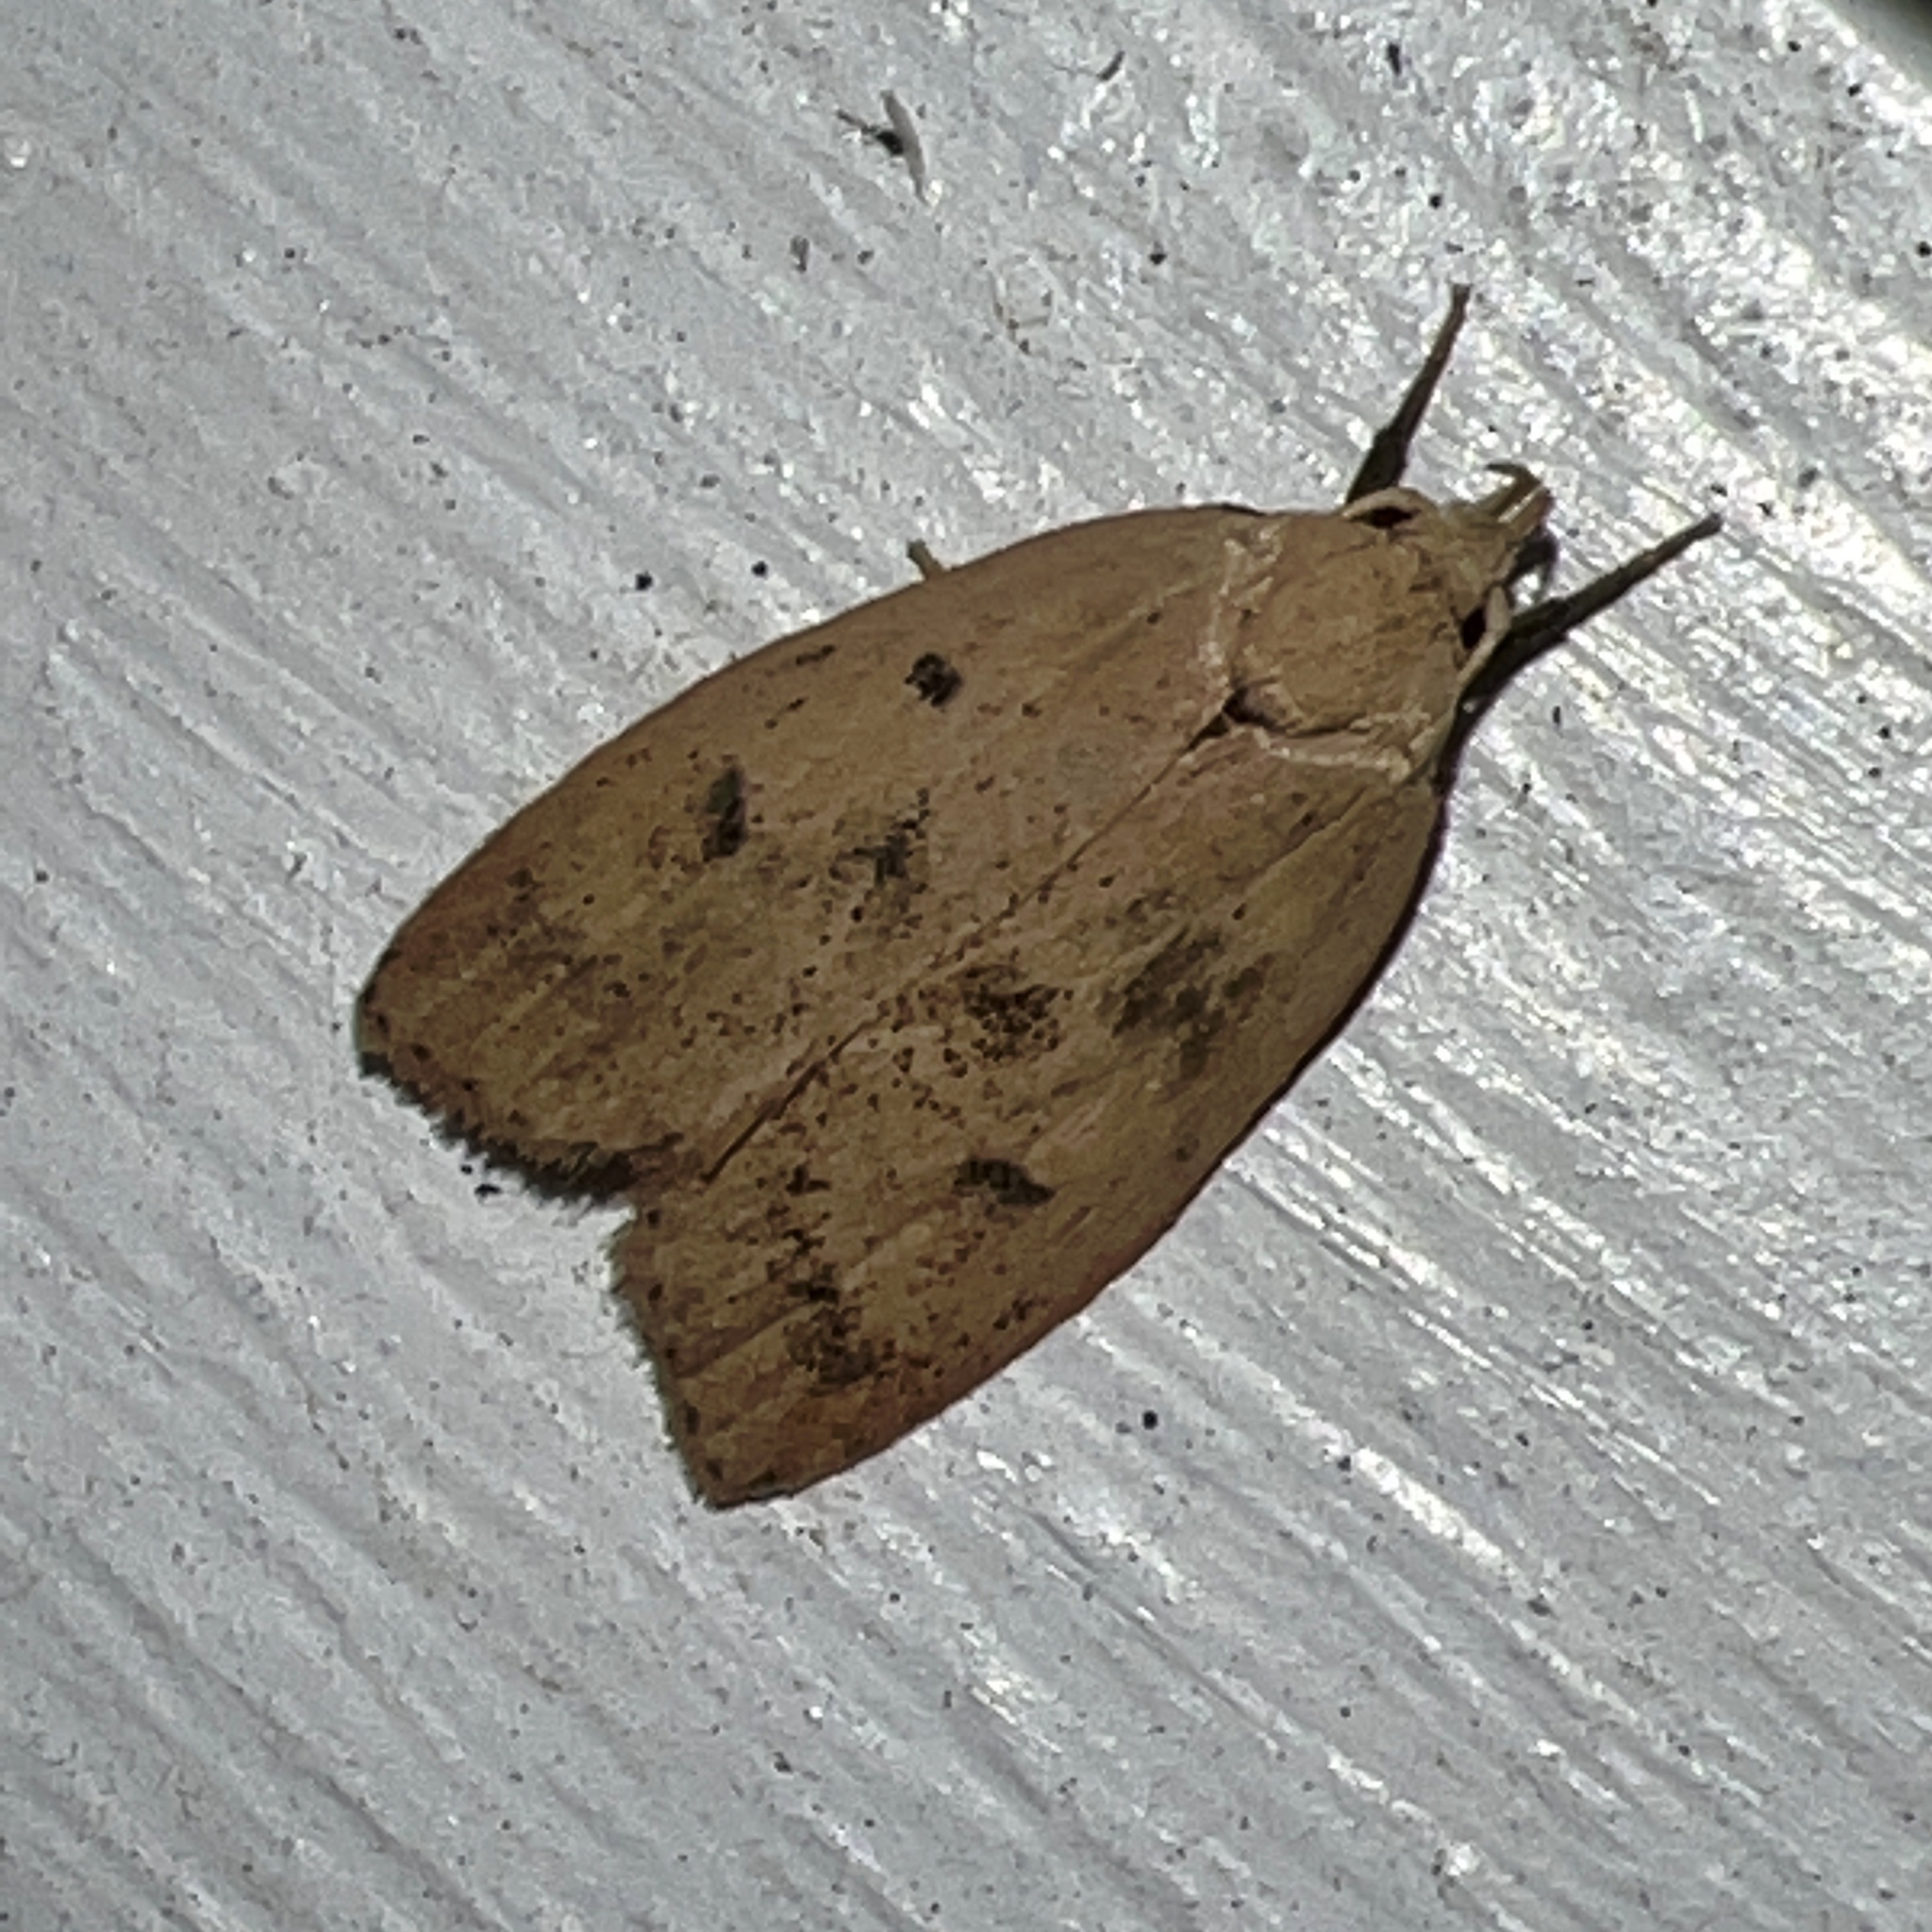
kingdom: Animalia
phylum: Arthropoda
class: Insecta
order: Lepidoptera
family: Peleopodidae
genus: Machimia
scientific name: Machimia tentoriferella
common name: Gold-striped leaftier moth
